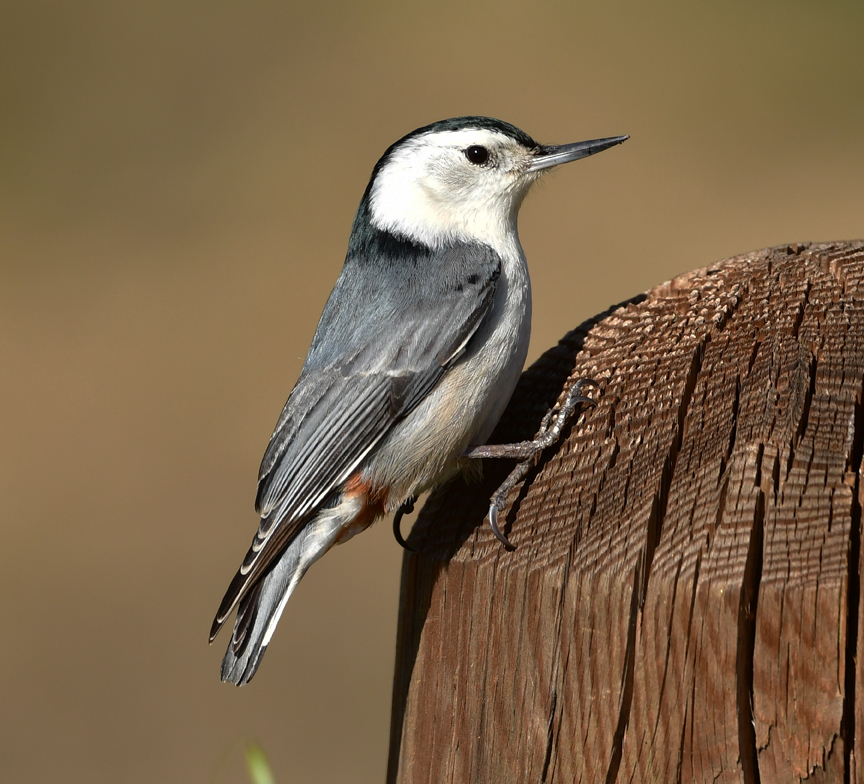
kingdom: Animalia
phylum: Chordata
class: Aves
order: Passeriformes
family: Sittidae
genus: Sitta
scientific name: Sitta carolinensis
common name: White-breasted nuthatch
